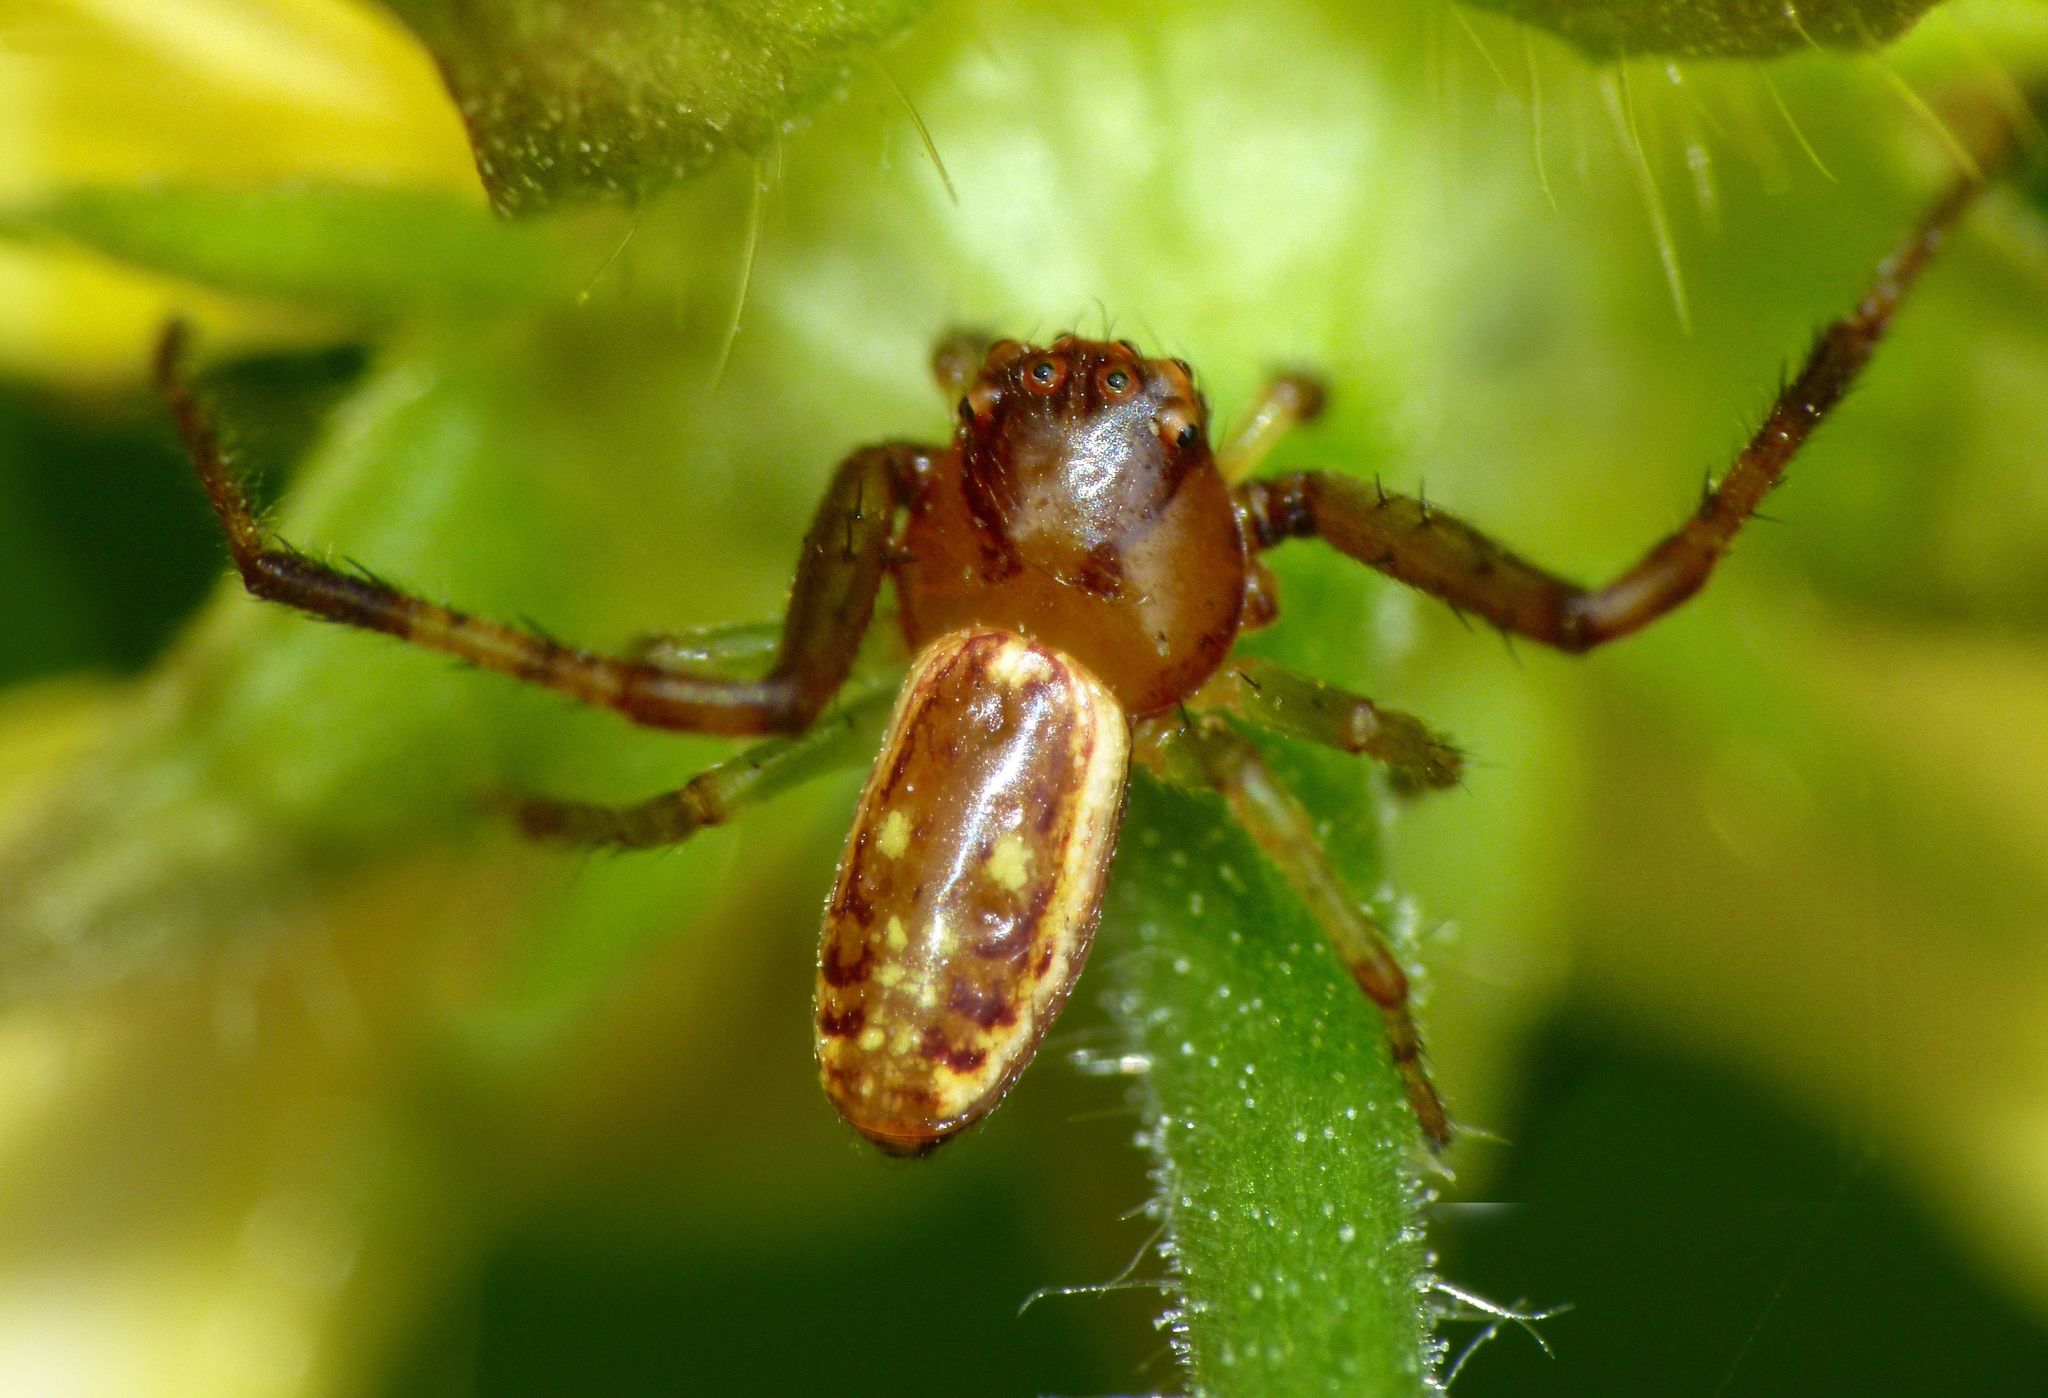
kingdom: Animalia
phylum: Arthropoda
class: Arachnida
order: Araneae
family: Thomisidae
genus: Diaea
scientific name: Diaea ambara
